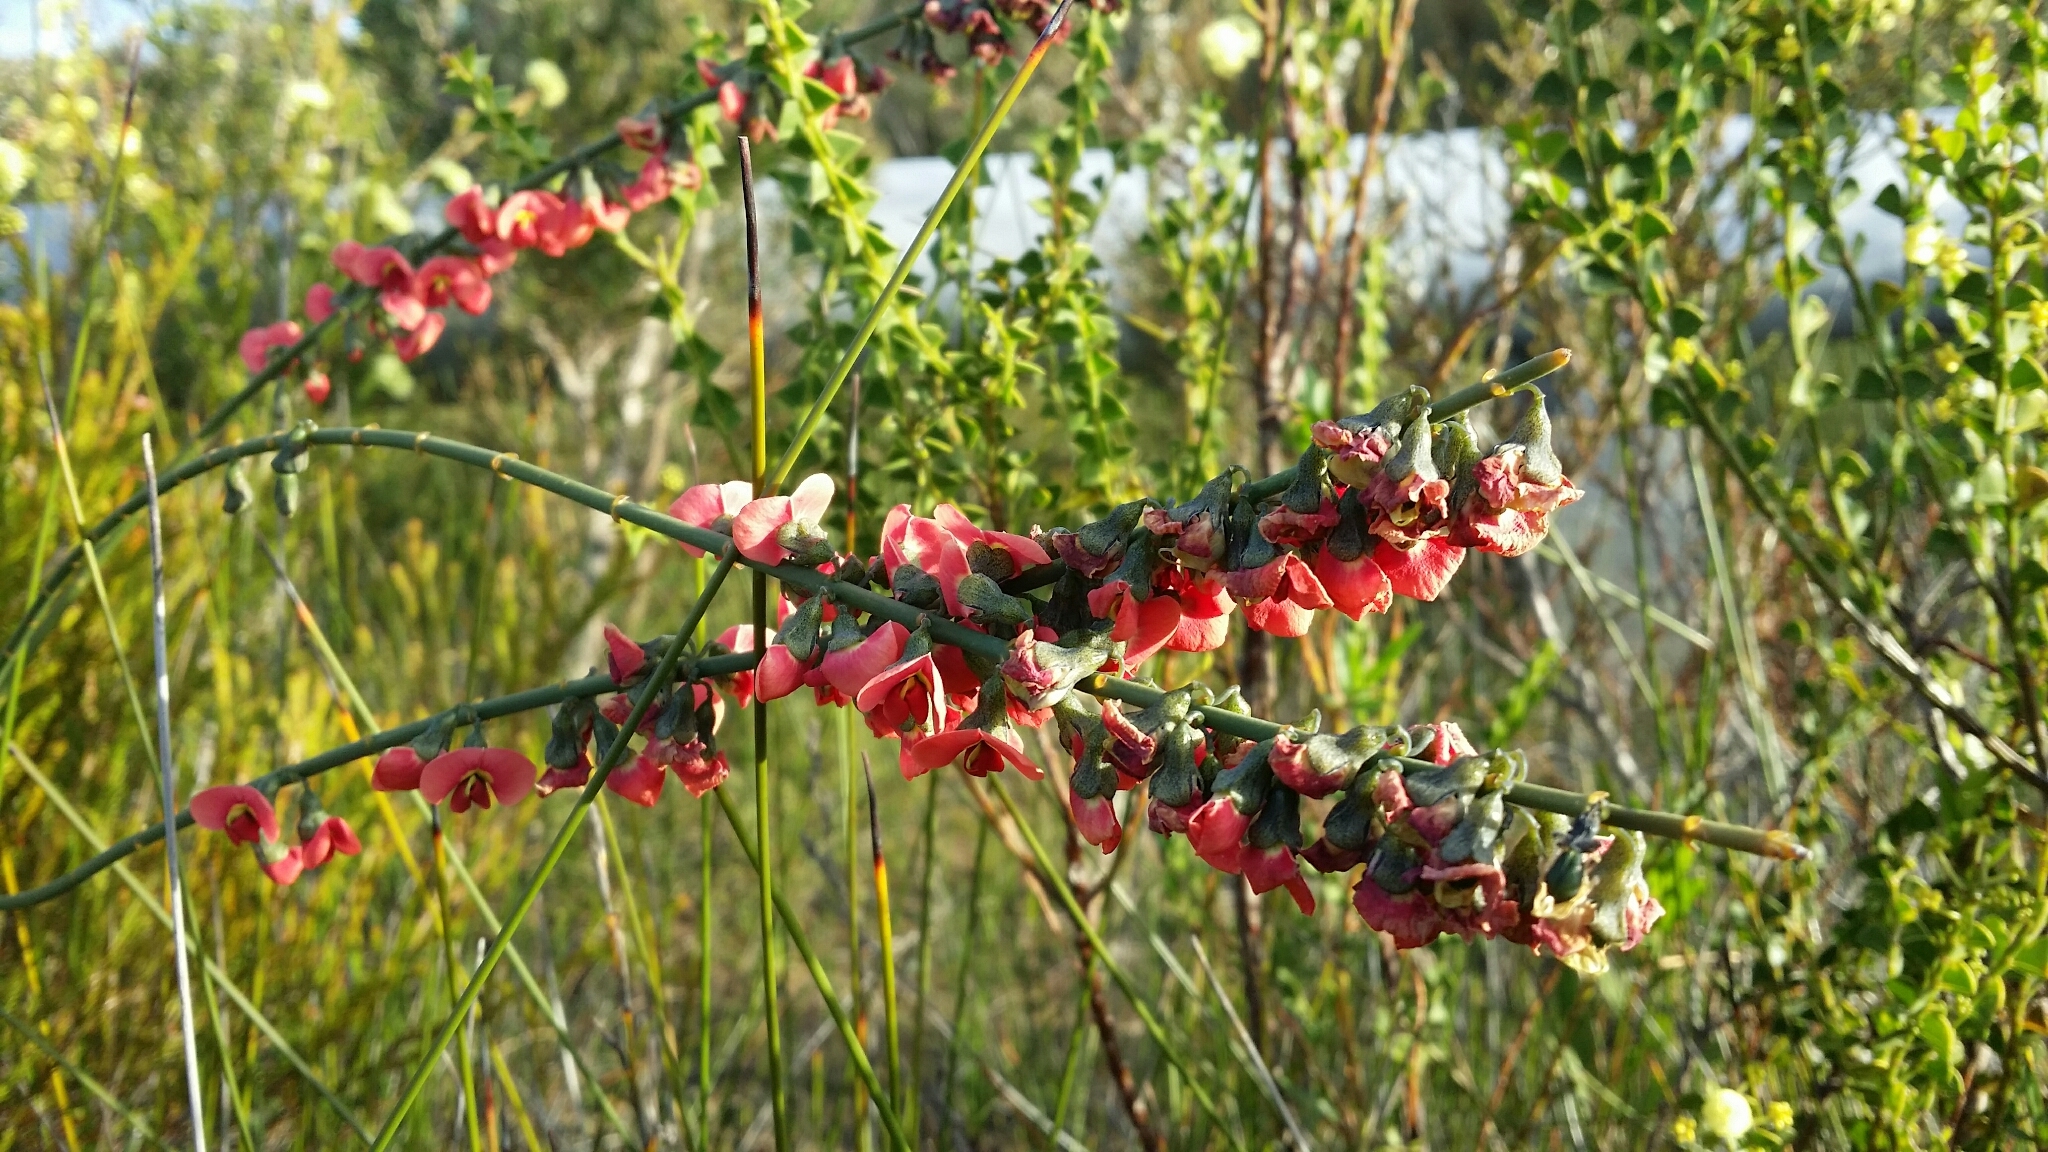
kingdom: Plantae
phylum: Tracheophyta
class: Magnoliopsida
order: Fabales
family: Fabaceae
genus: Sphaerolobium
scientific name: Sphaerolobium grandiflorum
